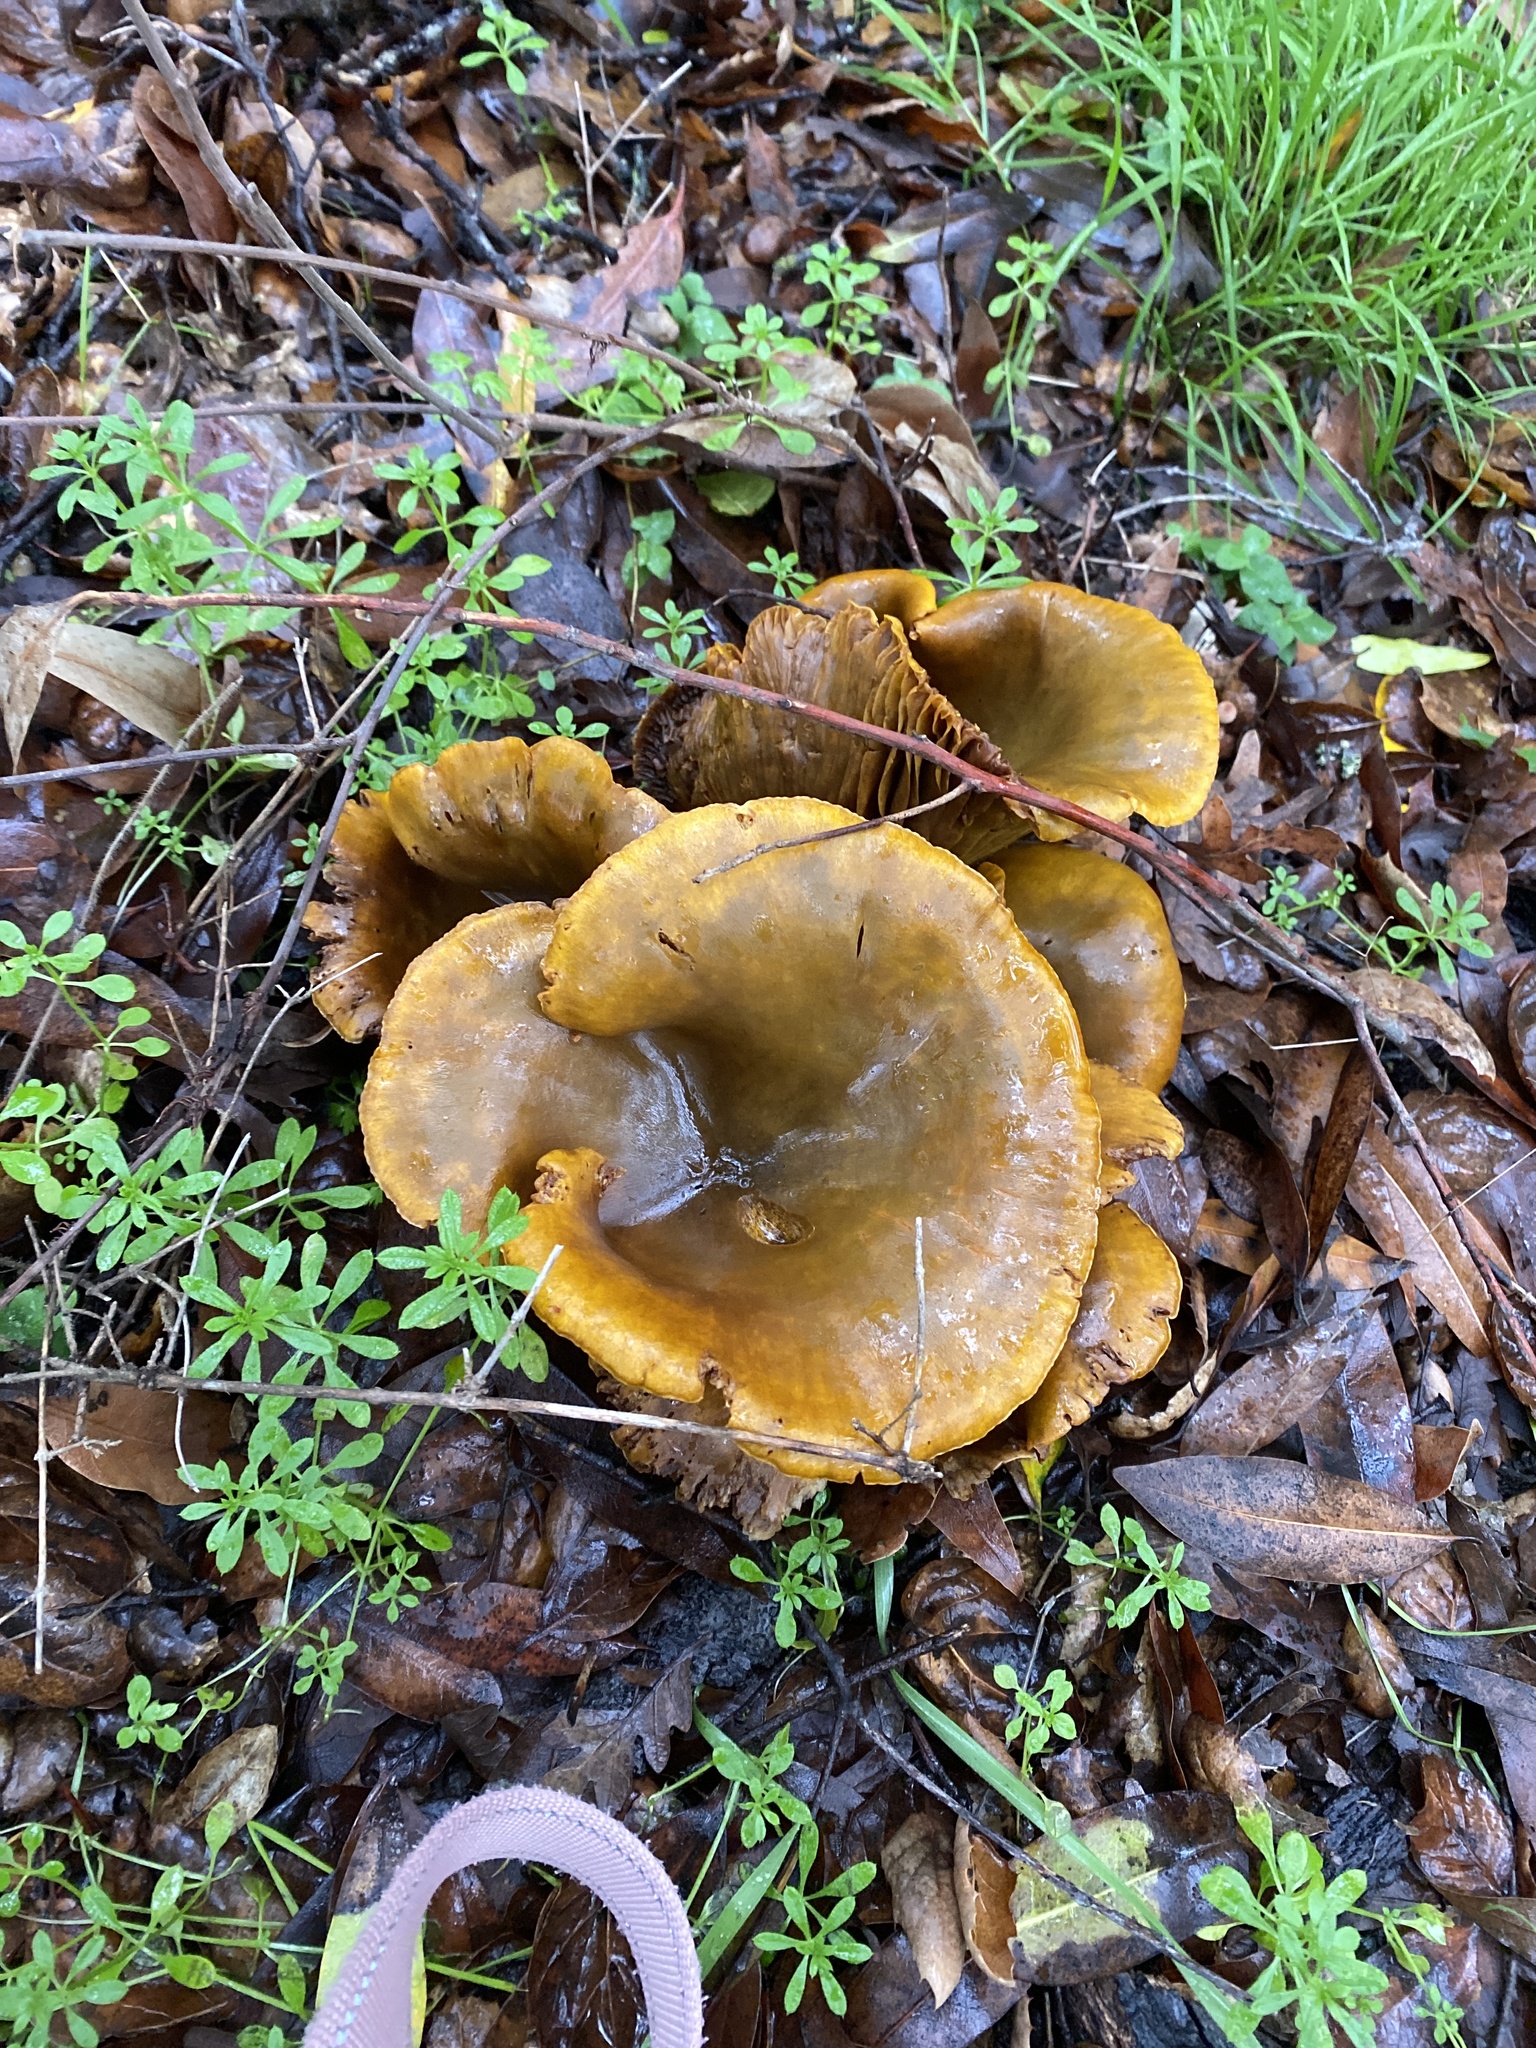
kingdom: Fungi
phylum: Basidiomycota
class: Agaricomycetes
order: Agaricales
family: Omphalotaceae
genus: Omphalotus
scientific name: Omphalotus olivascens
